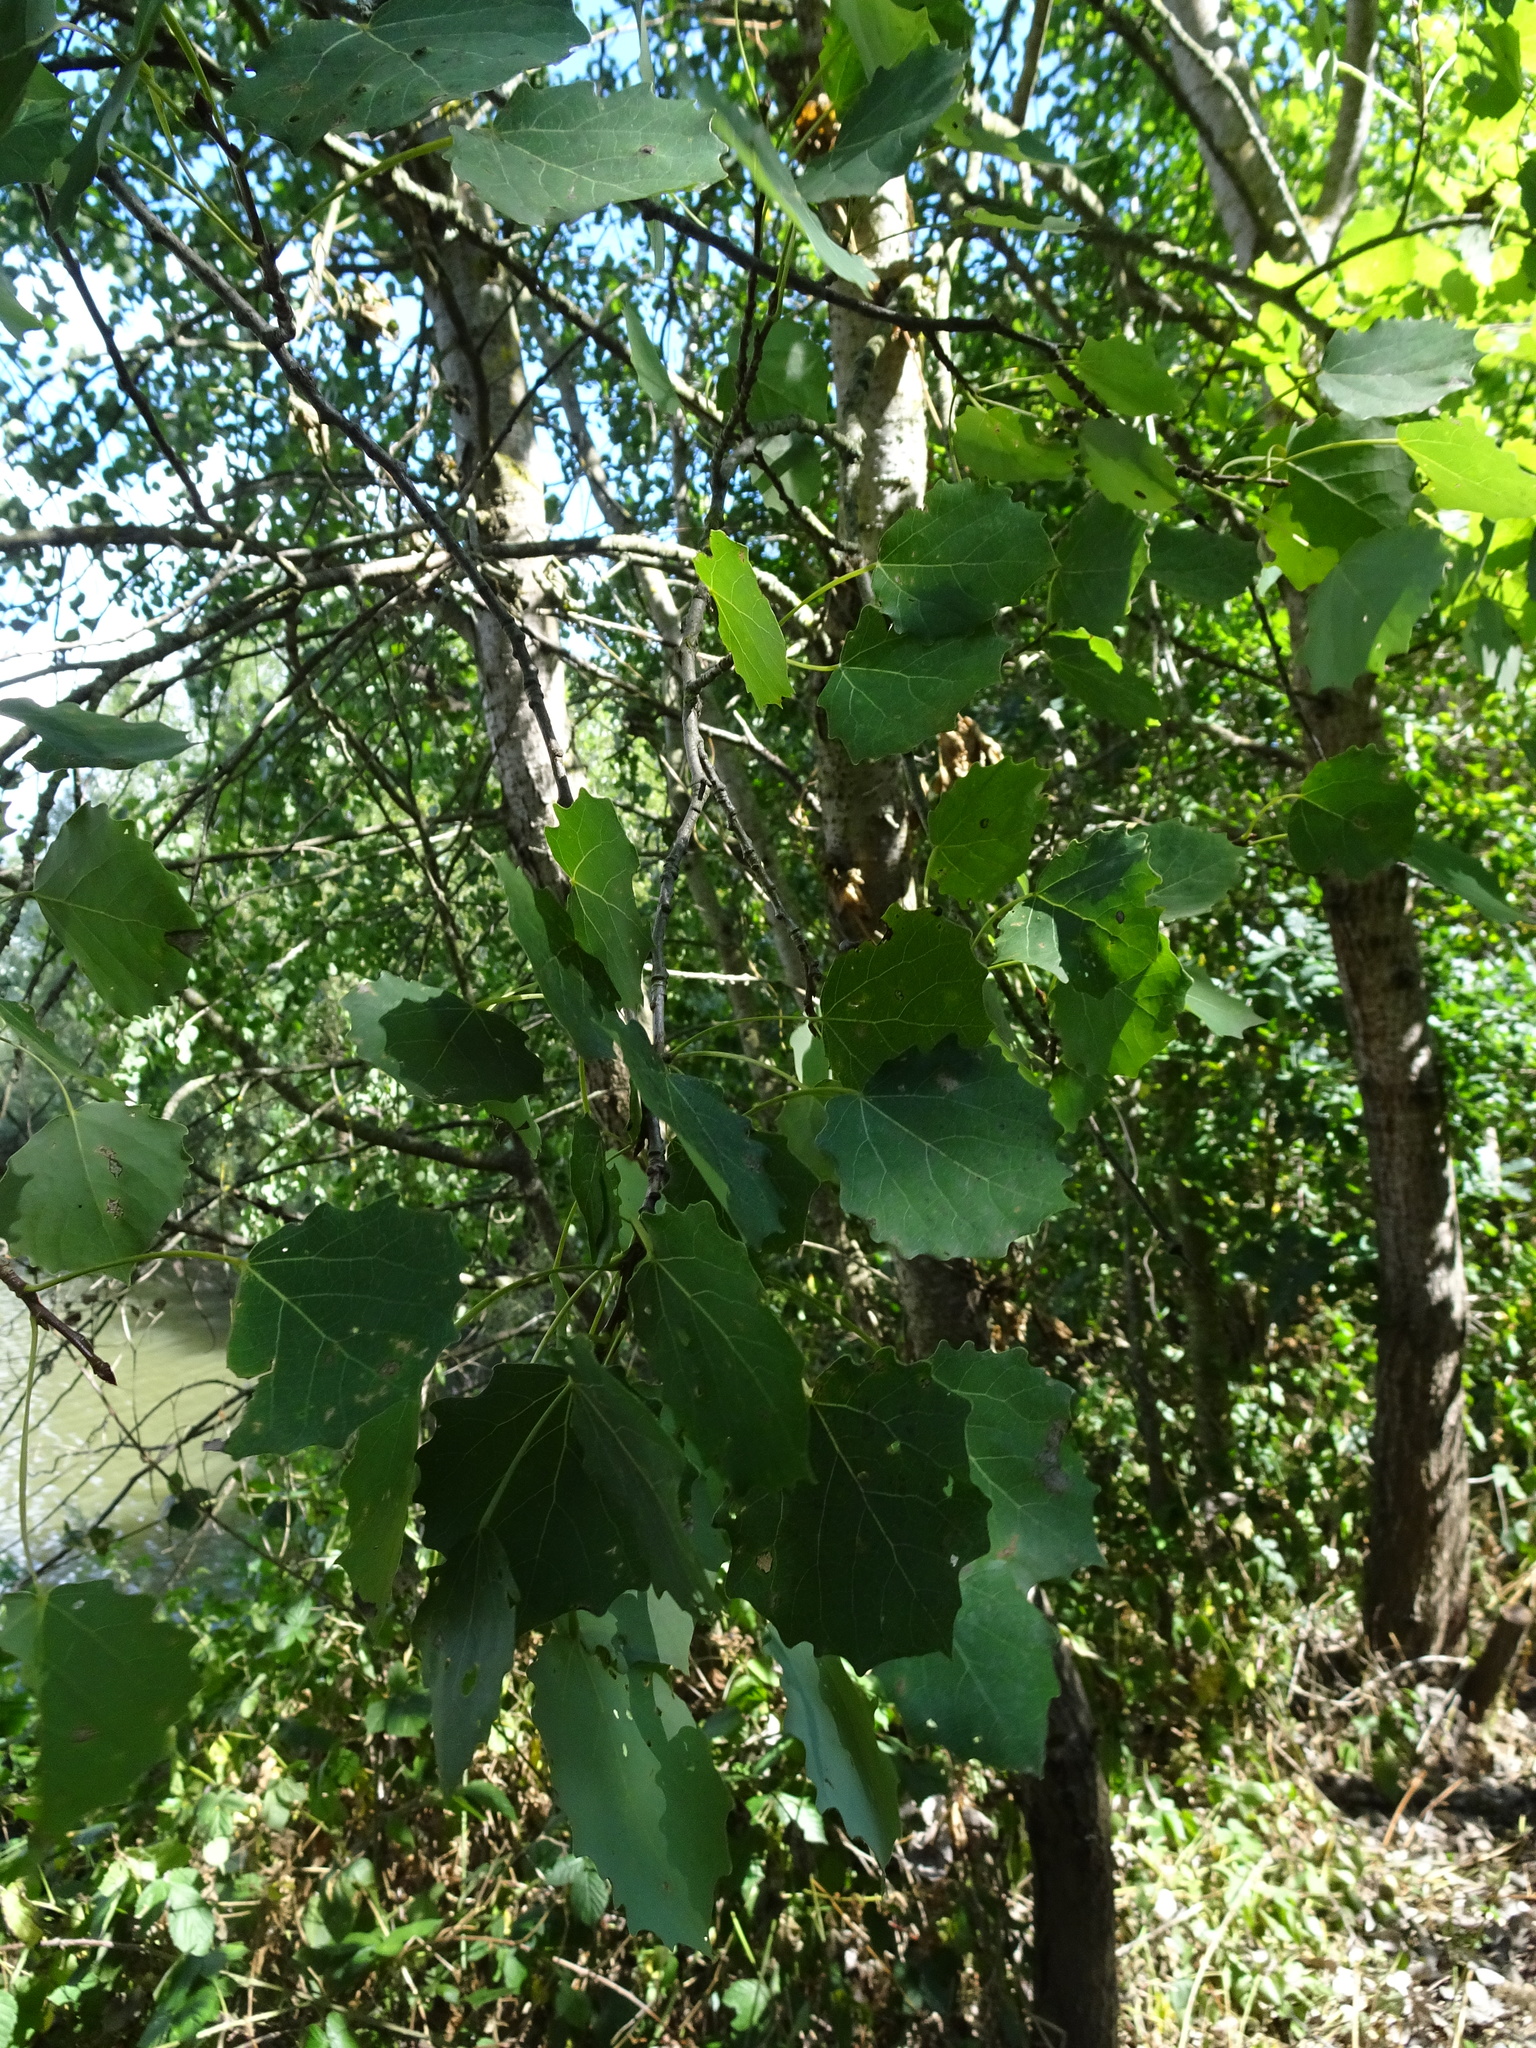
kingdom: Plantae
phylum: Tracheophyta
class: Magnoliopsida
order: Malpighiales
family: Salicaceae
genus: Populus
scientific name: Populus tremula
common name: European aspen
